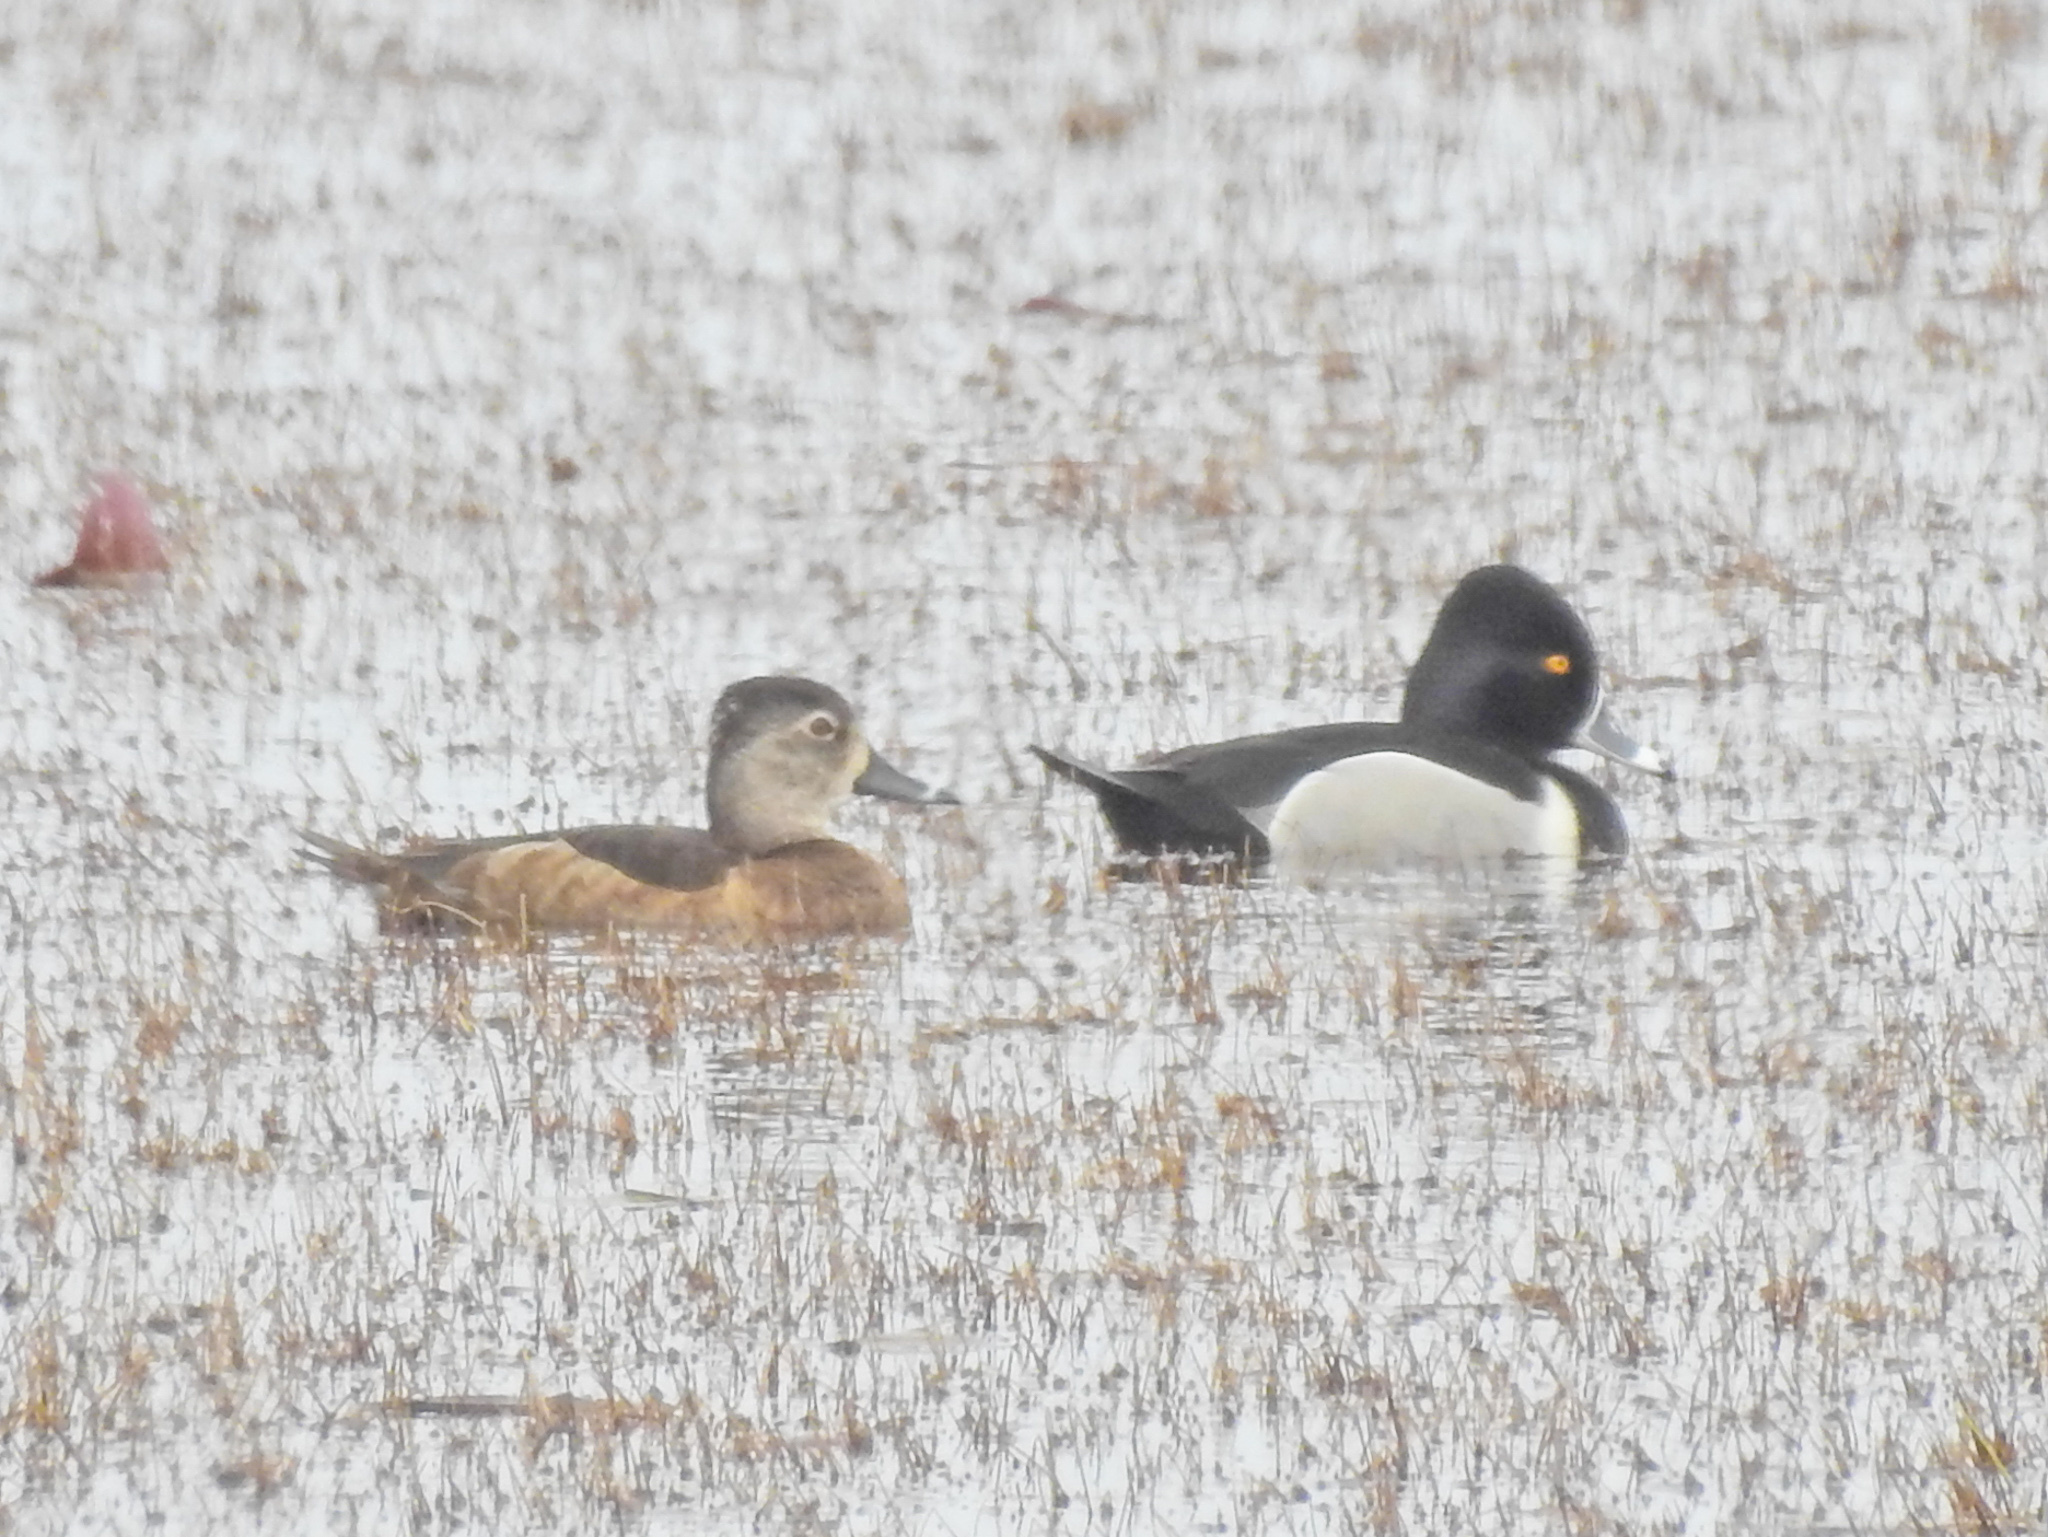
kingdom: Animalia
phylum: Chordata
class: Aves
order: Anseriformes
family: Anatidae
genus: Aythya
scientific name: Aythya collaris
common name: Ring-necked duck
